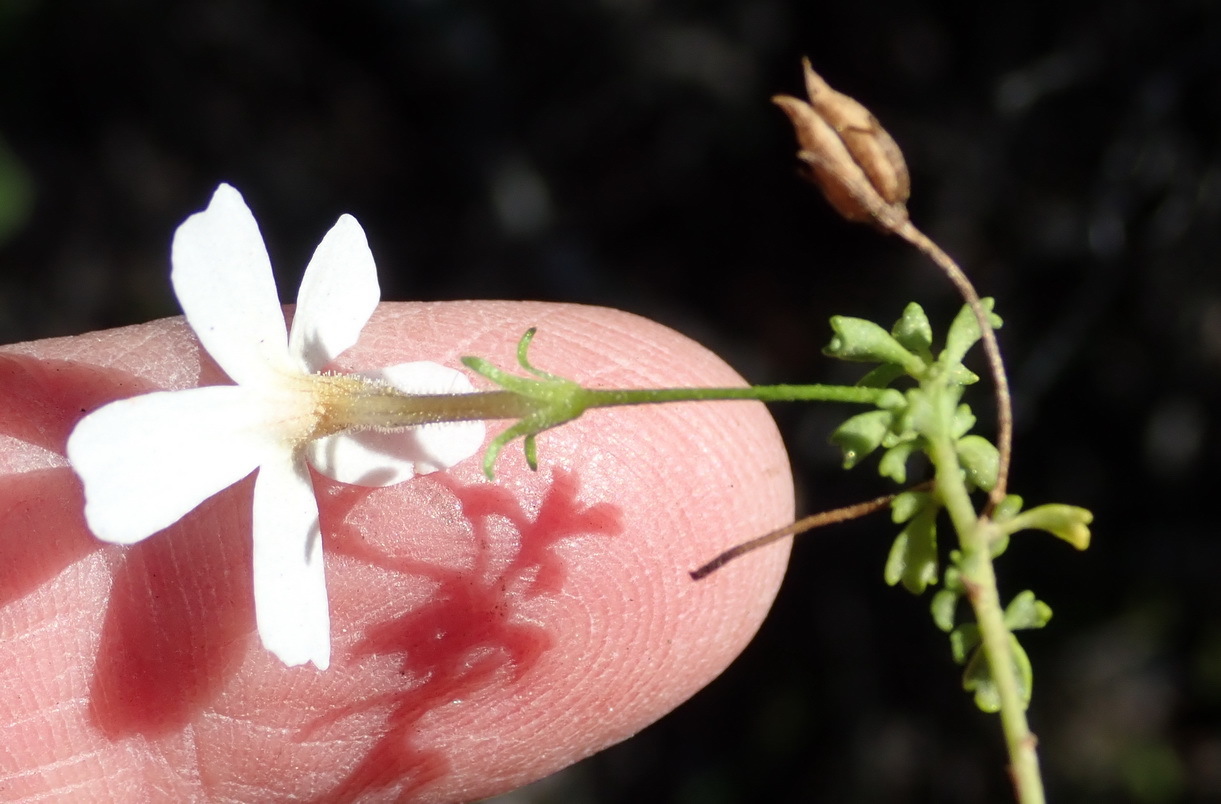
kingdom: Plantae
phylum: Tracheophyta
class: Magnoliopsida
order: Lamiales
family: Scrophulariaceae
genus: Jamesbrittenia
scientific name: Jamesbrittenia argentea
